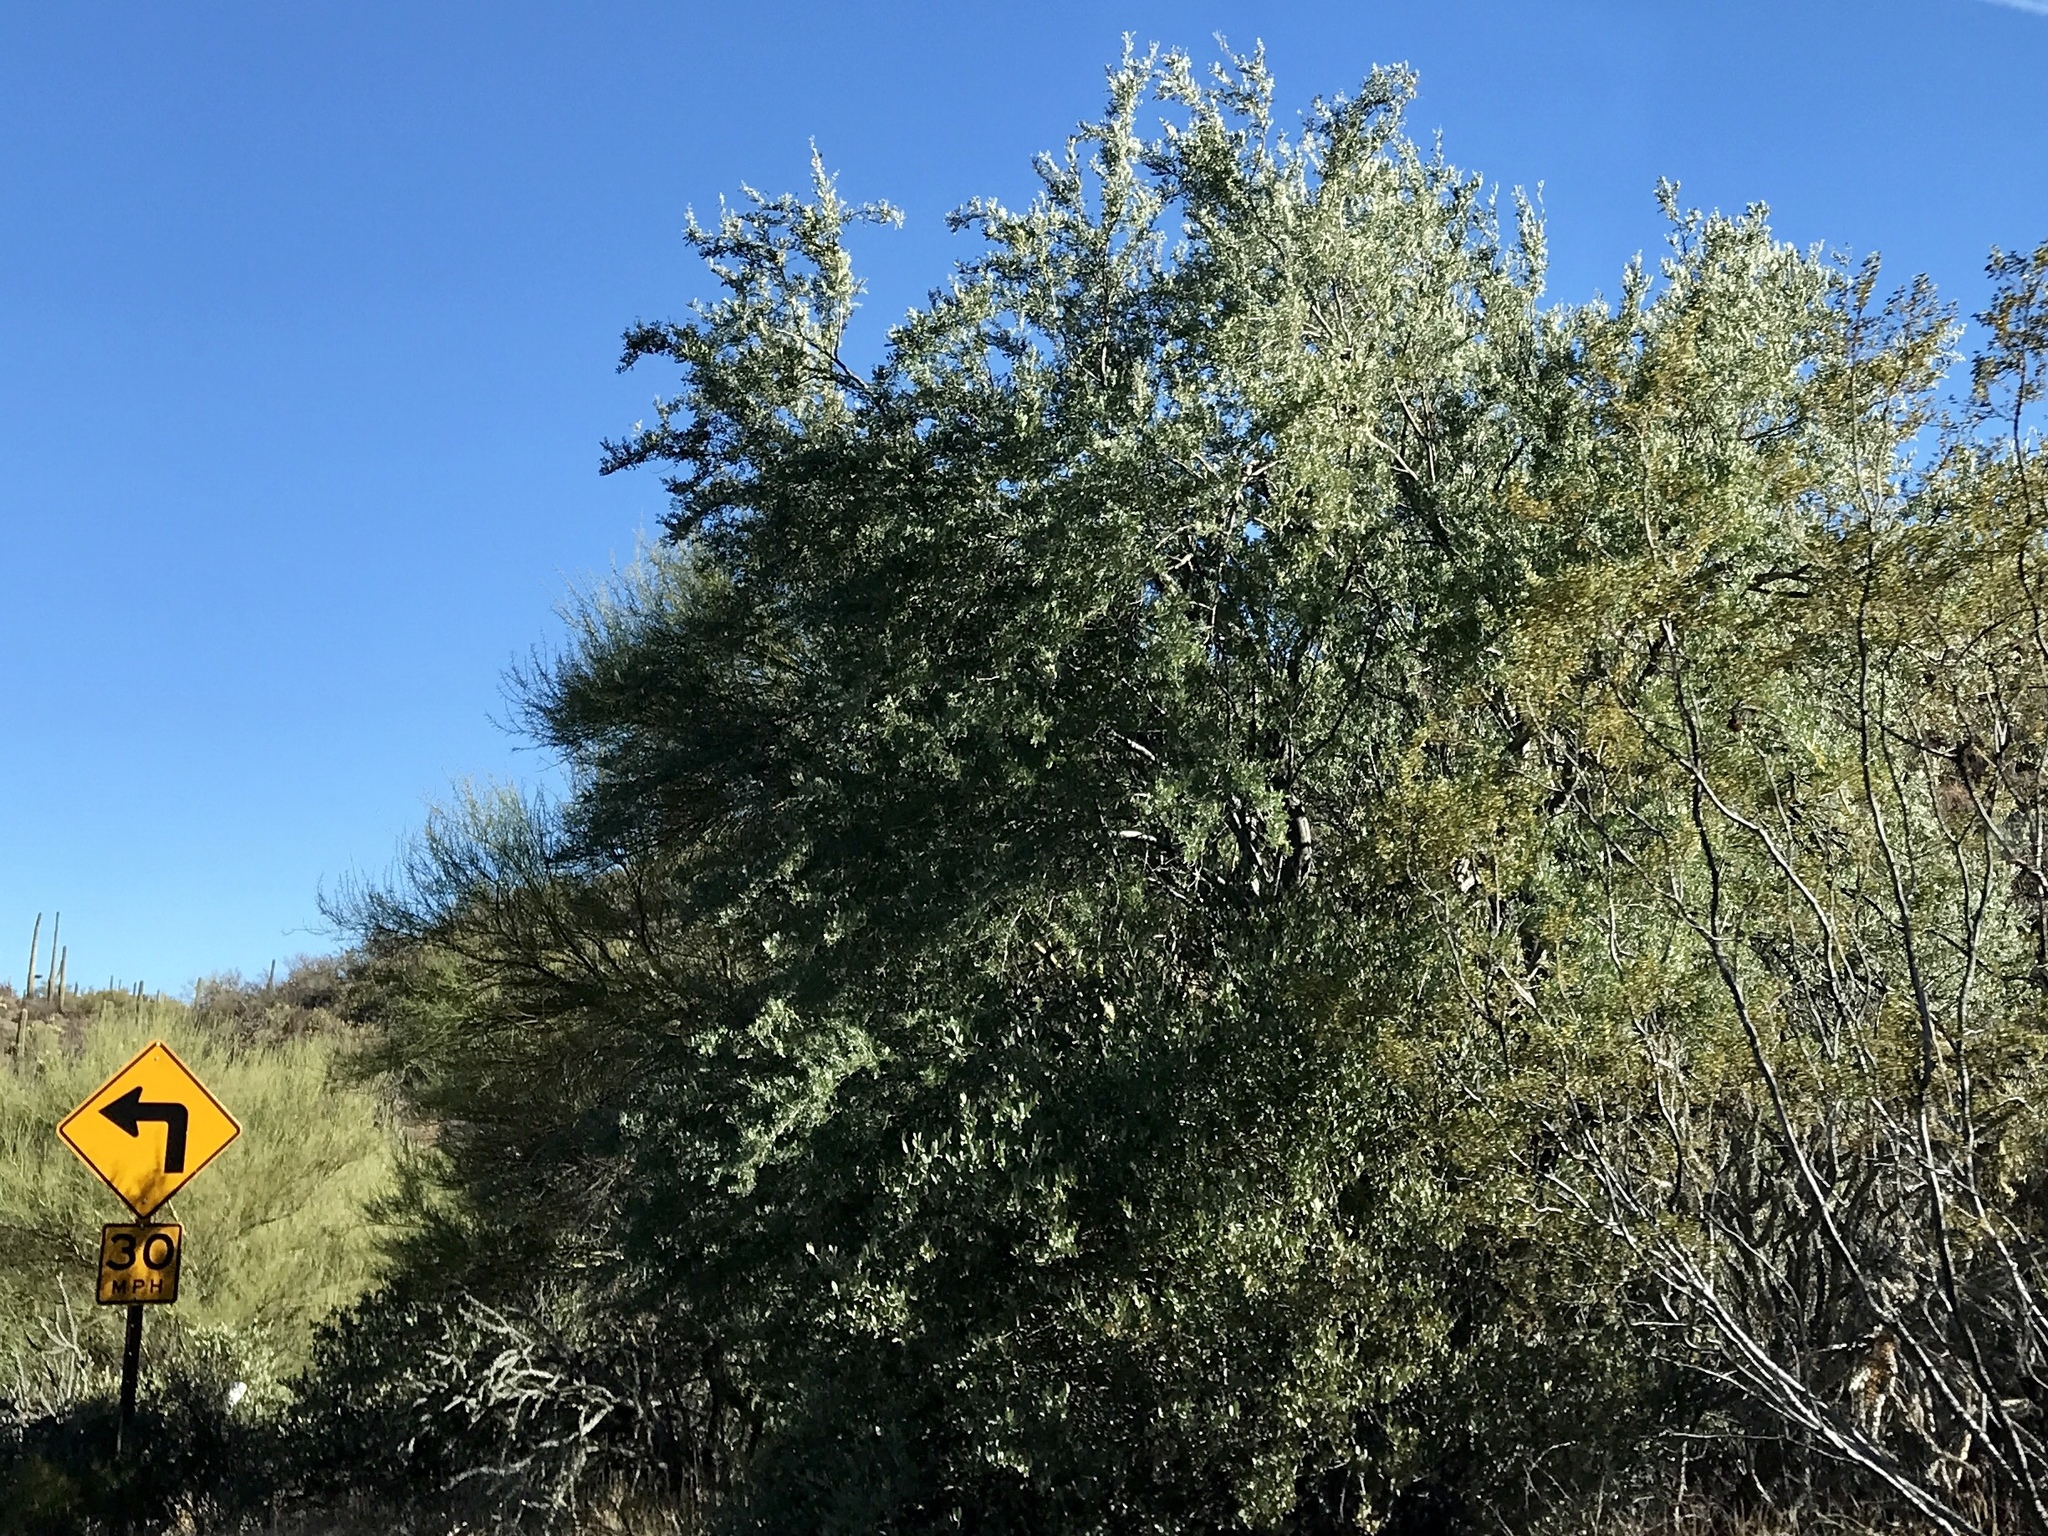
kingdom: Plantae
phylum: Tracheophyta
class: Magnoliopsida
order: Fabales
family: Fabaceae
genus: Olneya
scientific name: Olneya tesota
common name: Desert ironwood
